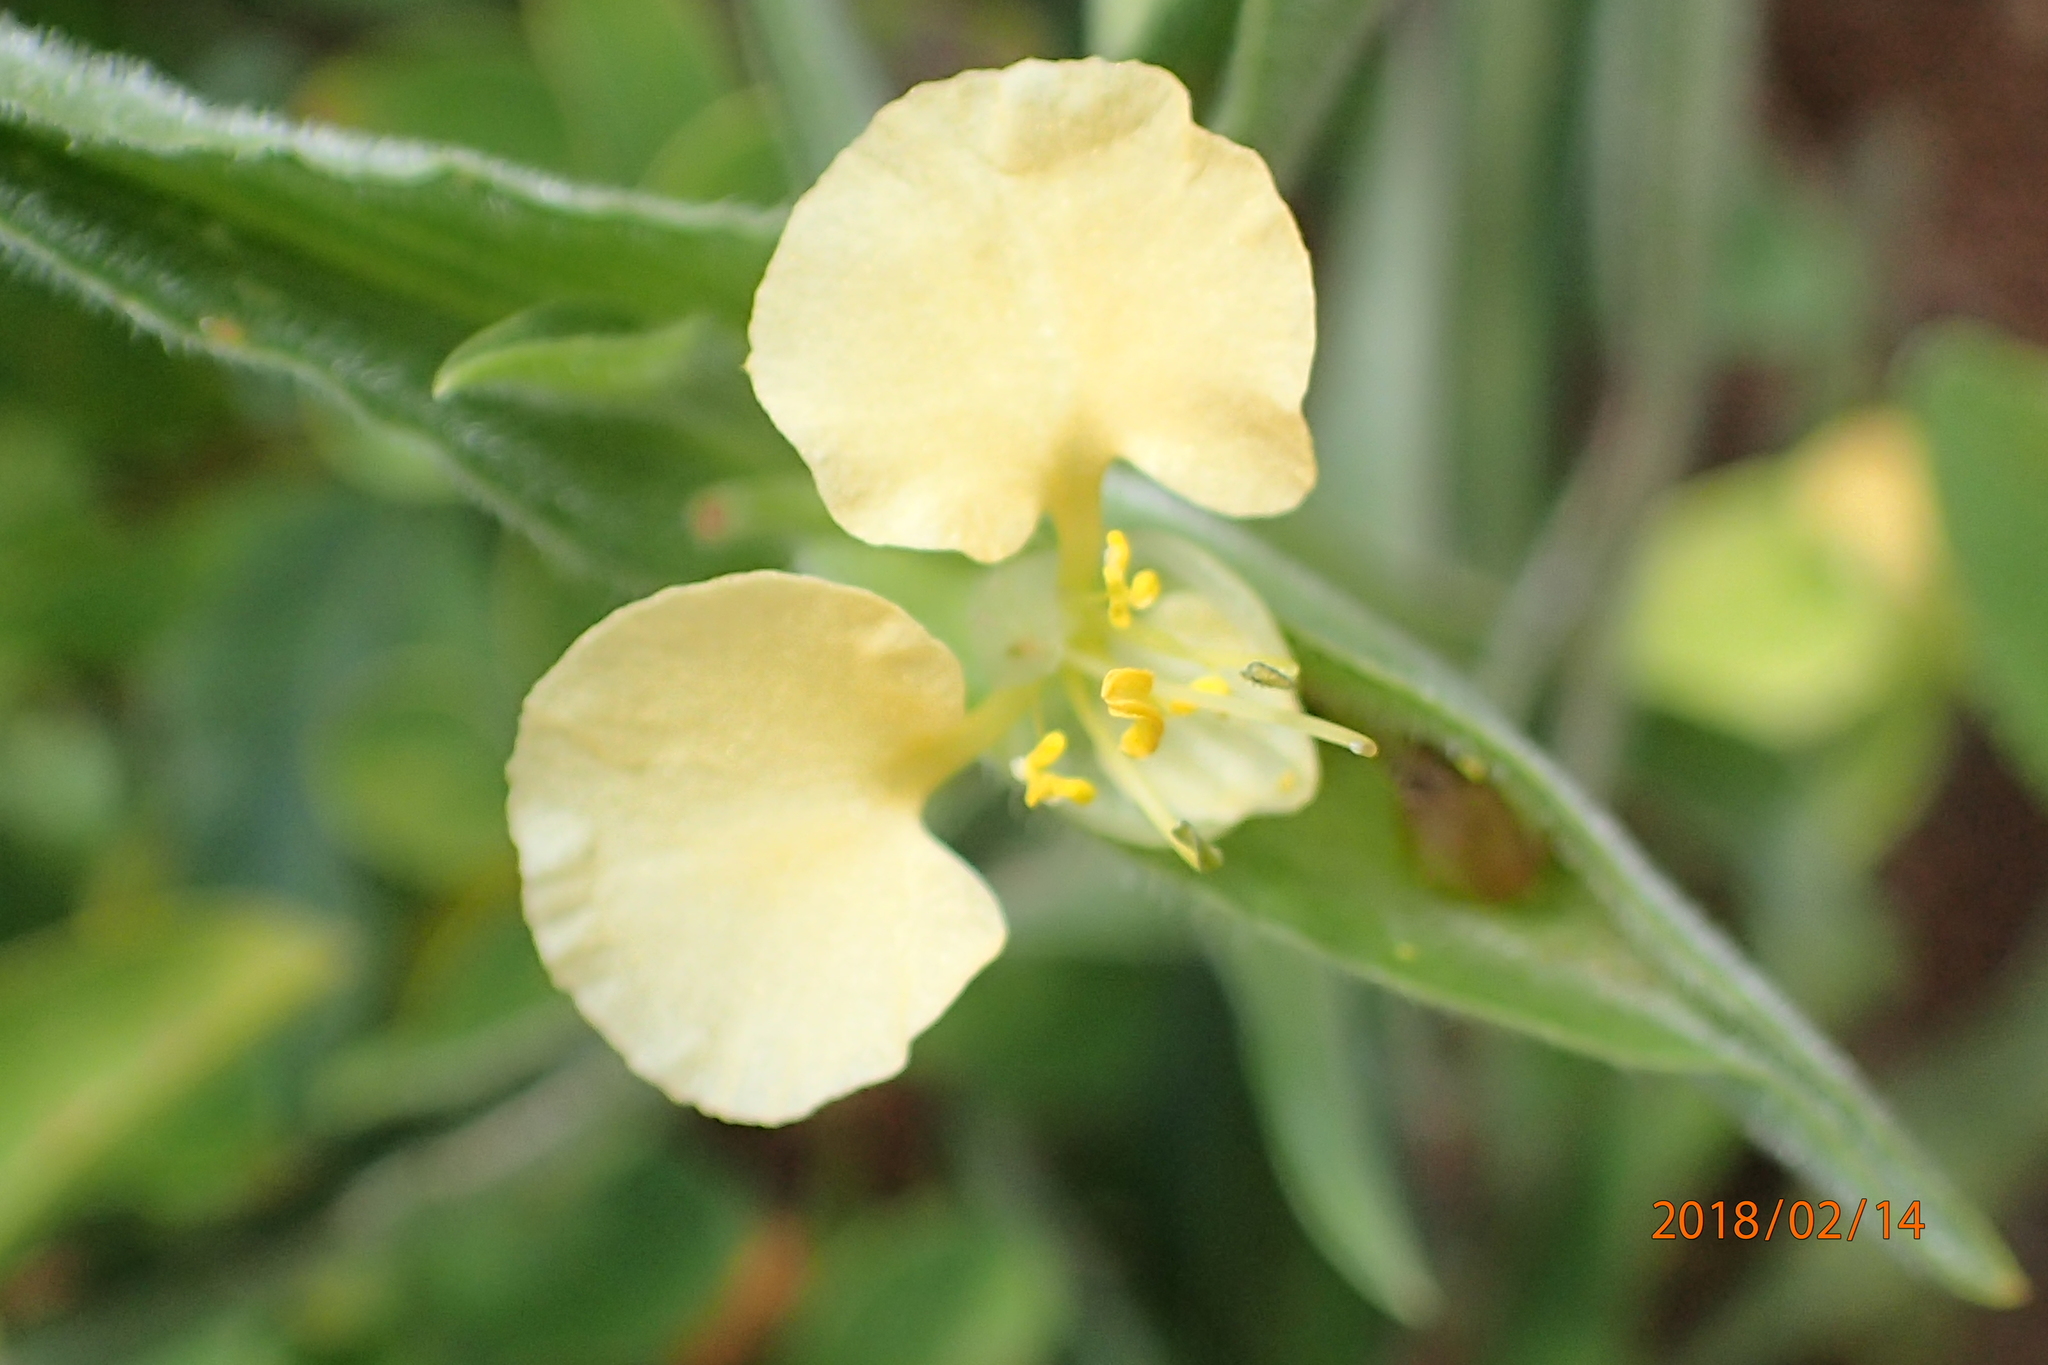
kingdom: Plantae
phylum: Tracheophyta
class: Liliopsida
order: Commelinales
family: Commelinaceae
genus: Commelina
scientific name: Commelina africana
